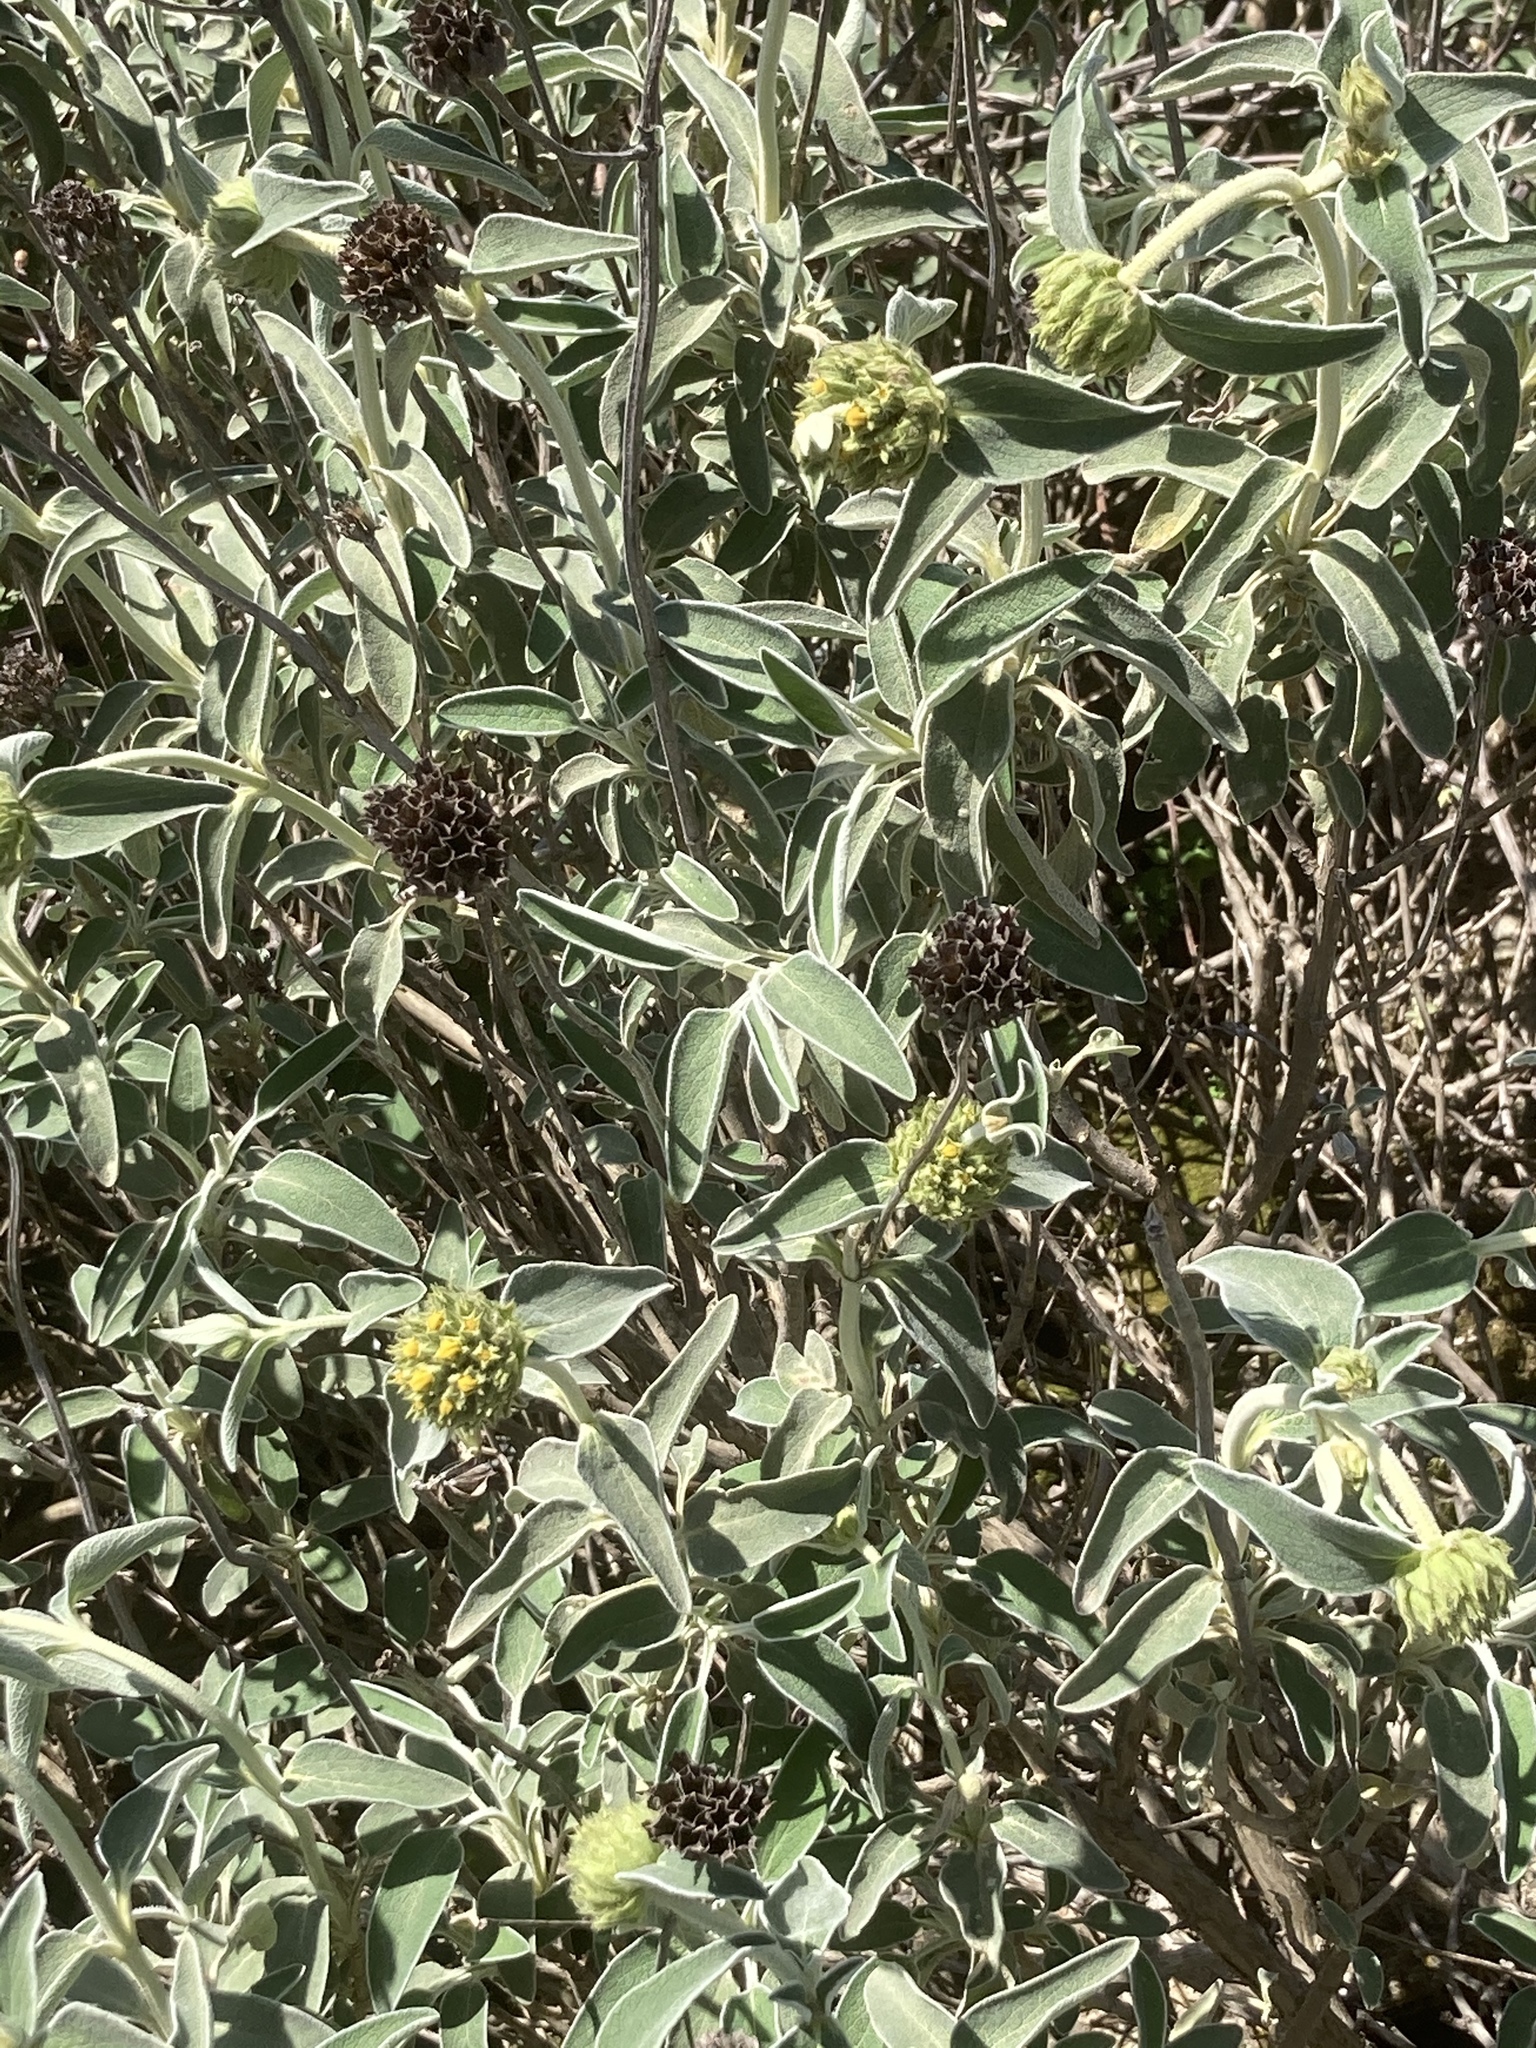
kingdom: Plantae
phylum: Tracheophyta
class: Magnoliopsida
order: Lamiales
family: Lamiaceae
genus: Phlomis
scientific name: Phlomis fruticosa
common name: Jerusalem sage
